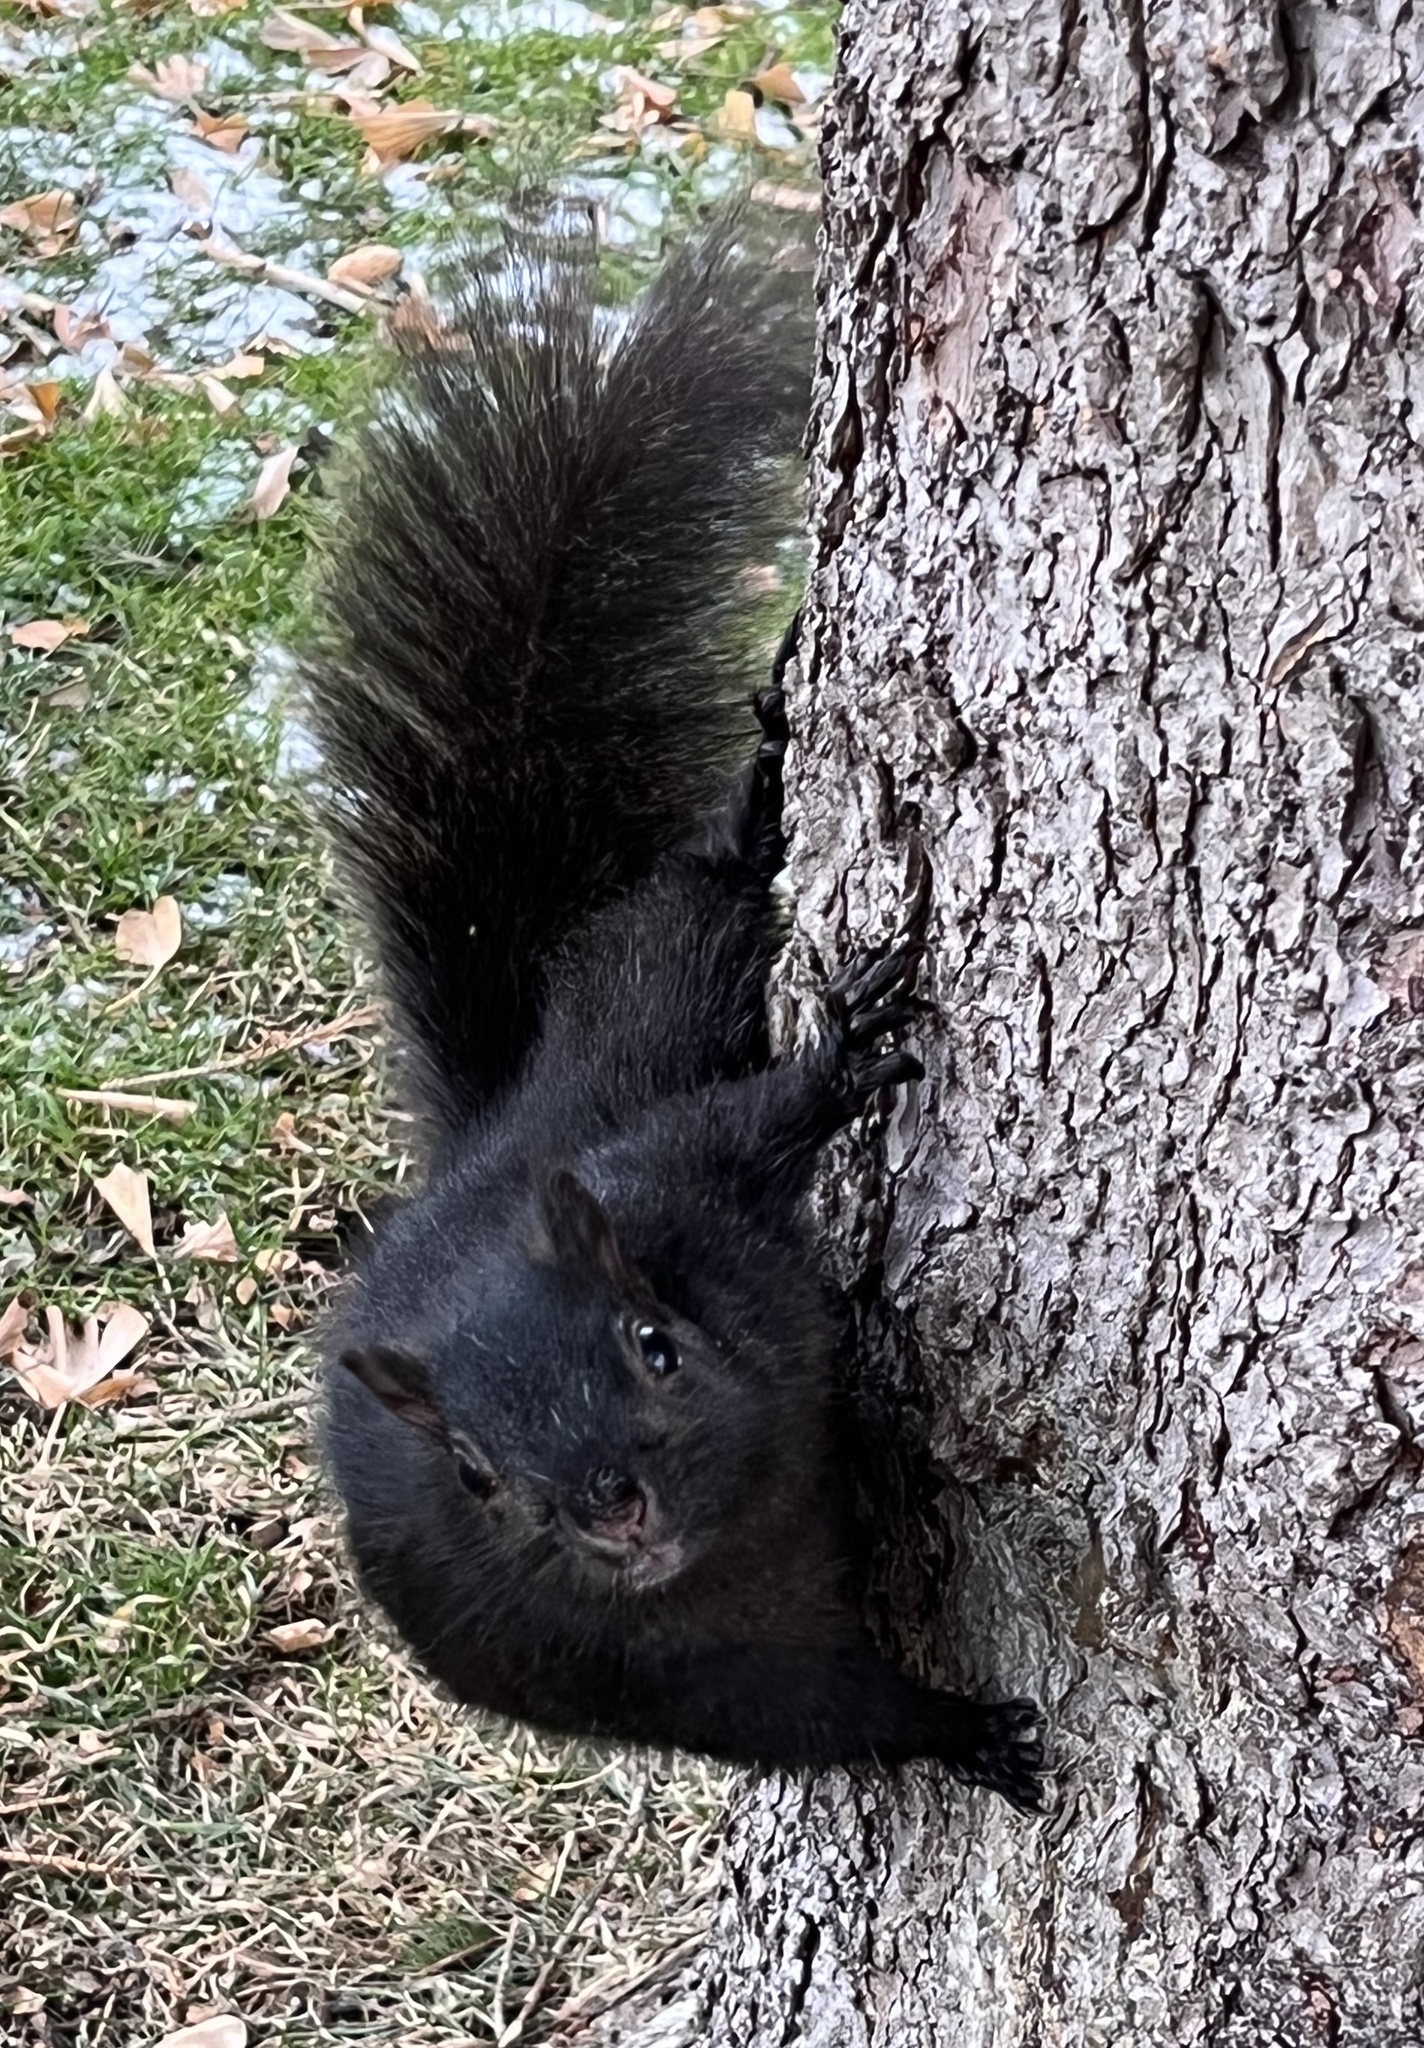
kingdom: Animalia
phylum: Chordata
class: Mammalia
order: Rodentia
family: Sciuridae
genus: Sciurus
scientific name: Sciurus carolinensis
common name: Eastern gray squirrel
